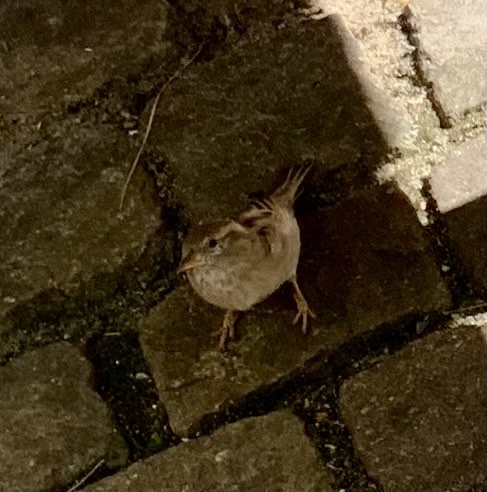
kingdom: Animalia
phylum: Chordata
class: Aves
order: Passeriformes
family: Passeridae
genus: Passer
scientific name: Passer domesticus
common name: House sparrow
